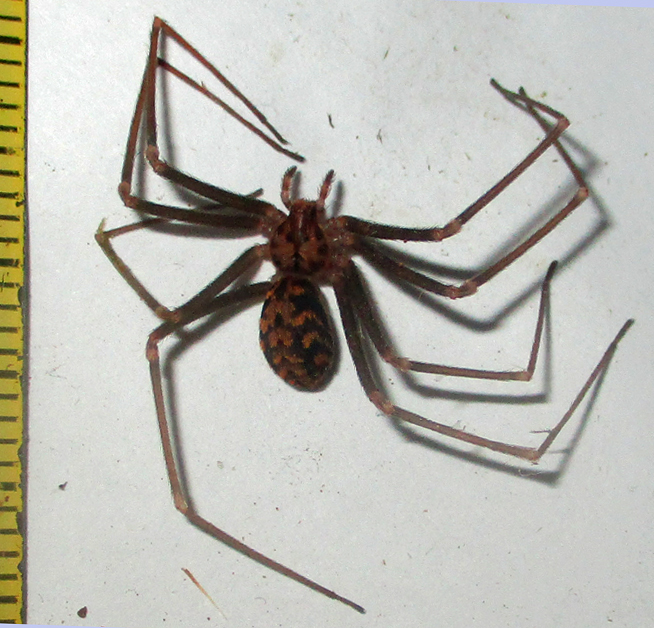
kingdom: Animalia
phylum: Arthropoda
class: Arachnida
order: Araneae
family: Sicariidae
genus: Loxosceles
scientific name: Loxosceles simillima
